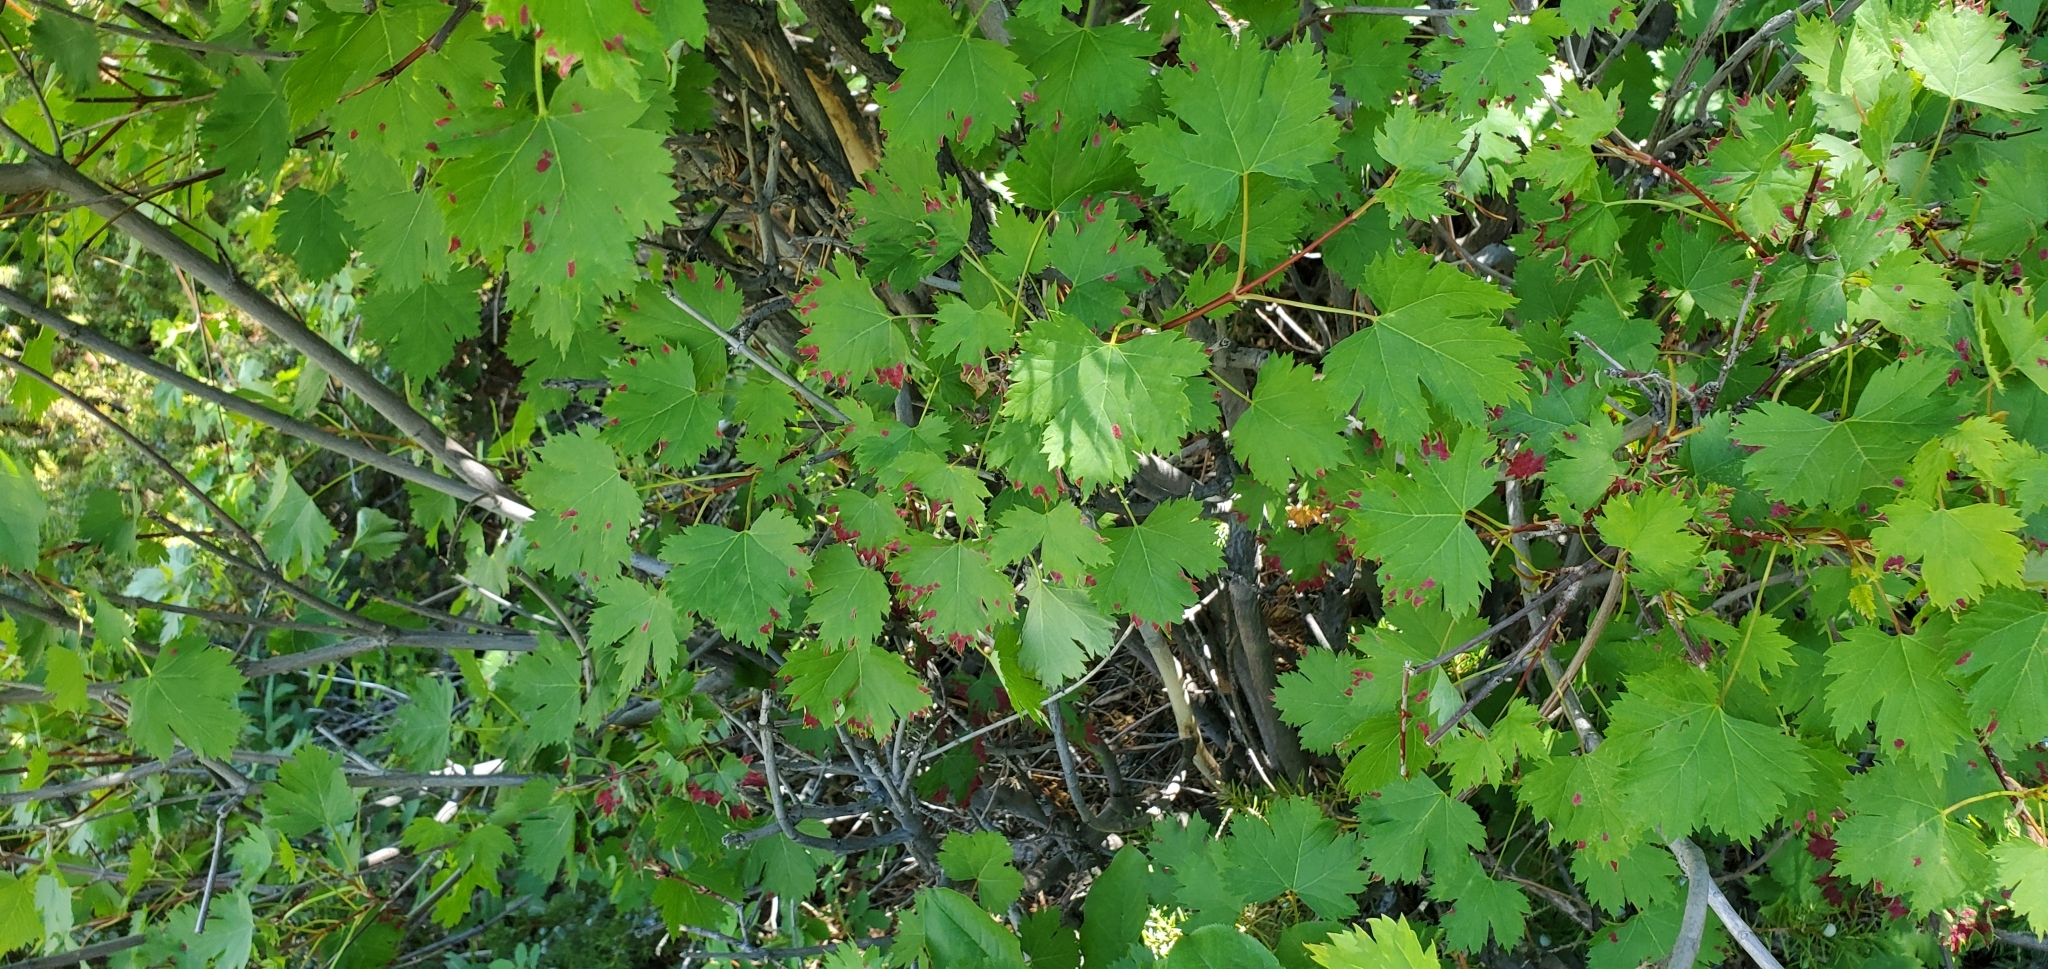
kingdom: Plantae
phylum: Tracheophyta
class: Magnoliopsida
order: Sapindales
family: Sapindaceae
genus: Acer
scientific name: Acer glabrum
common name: Rocky mountain maple
